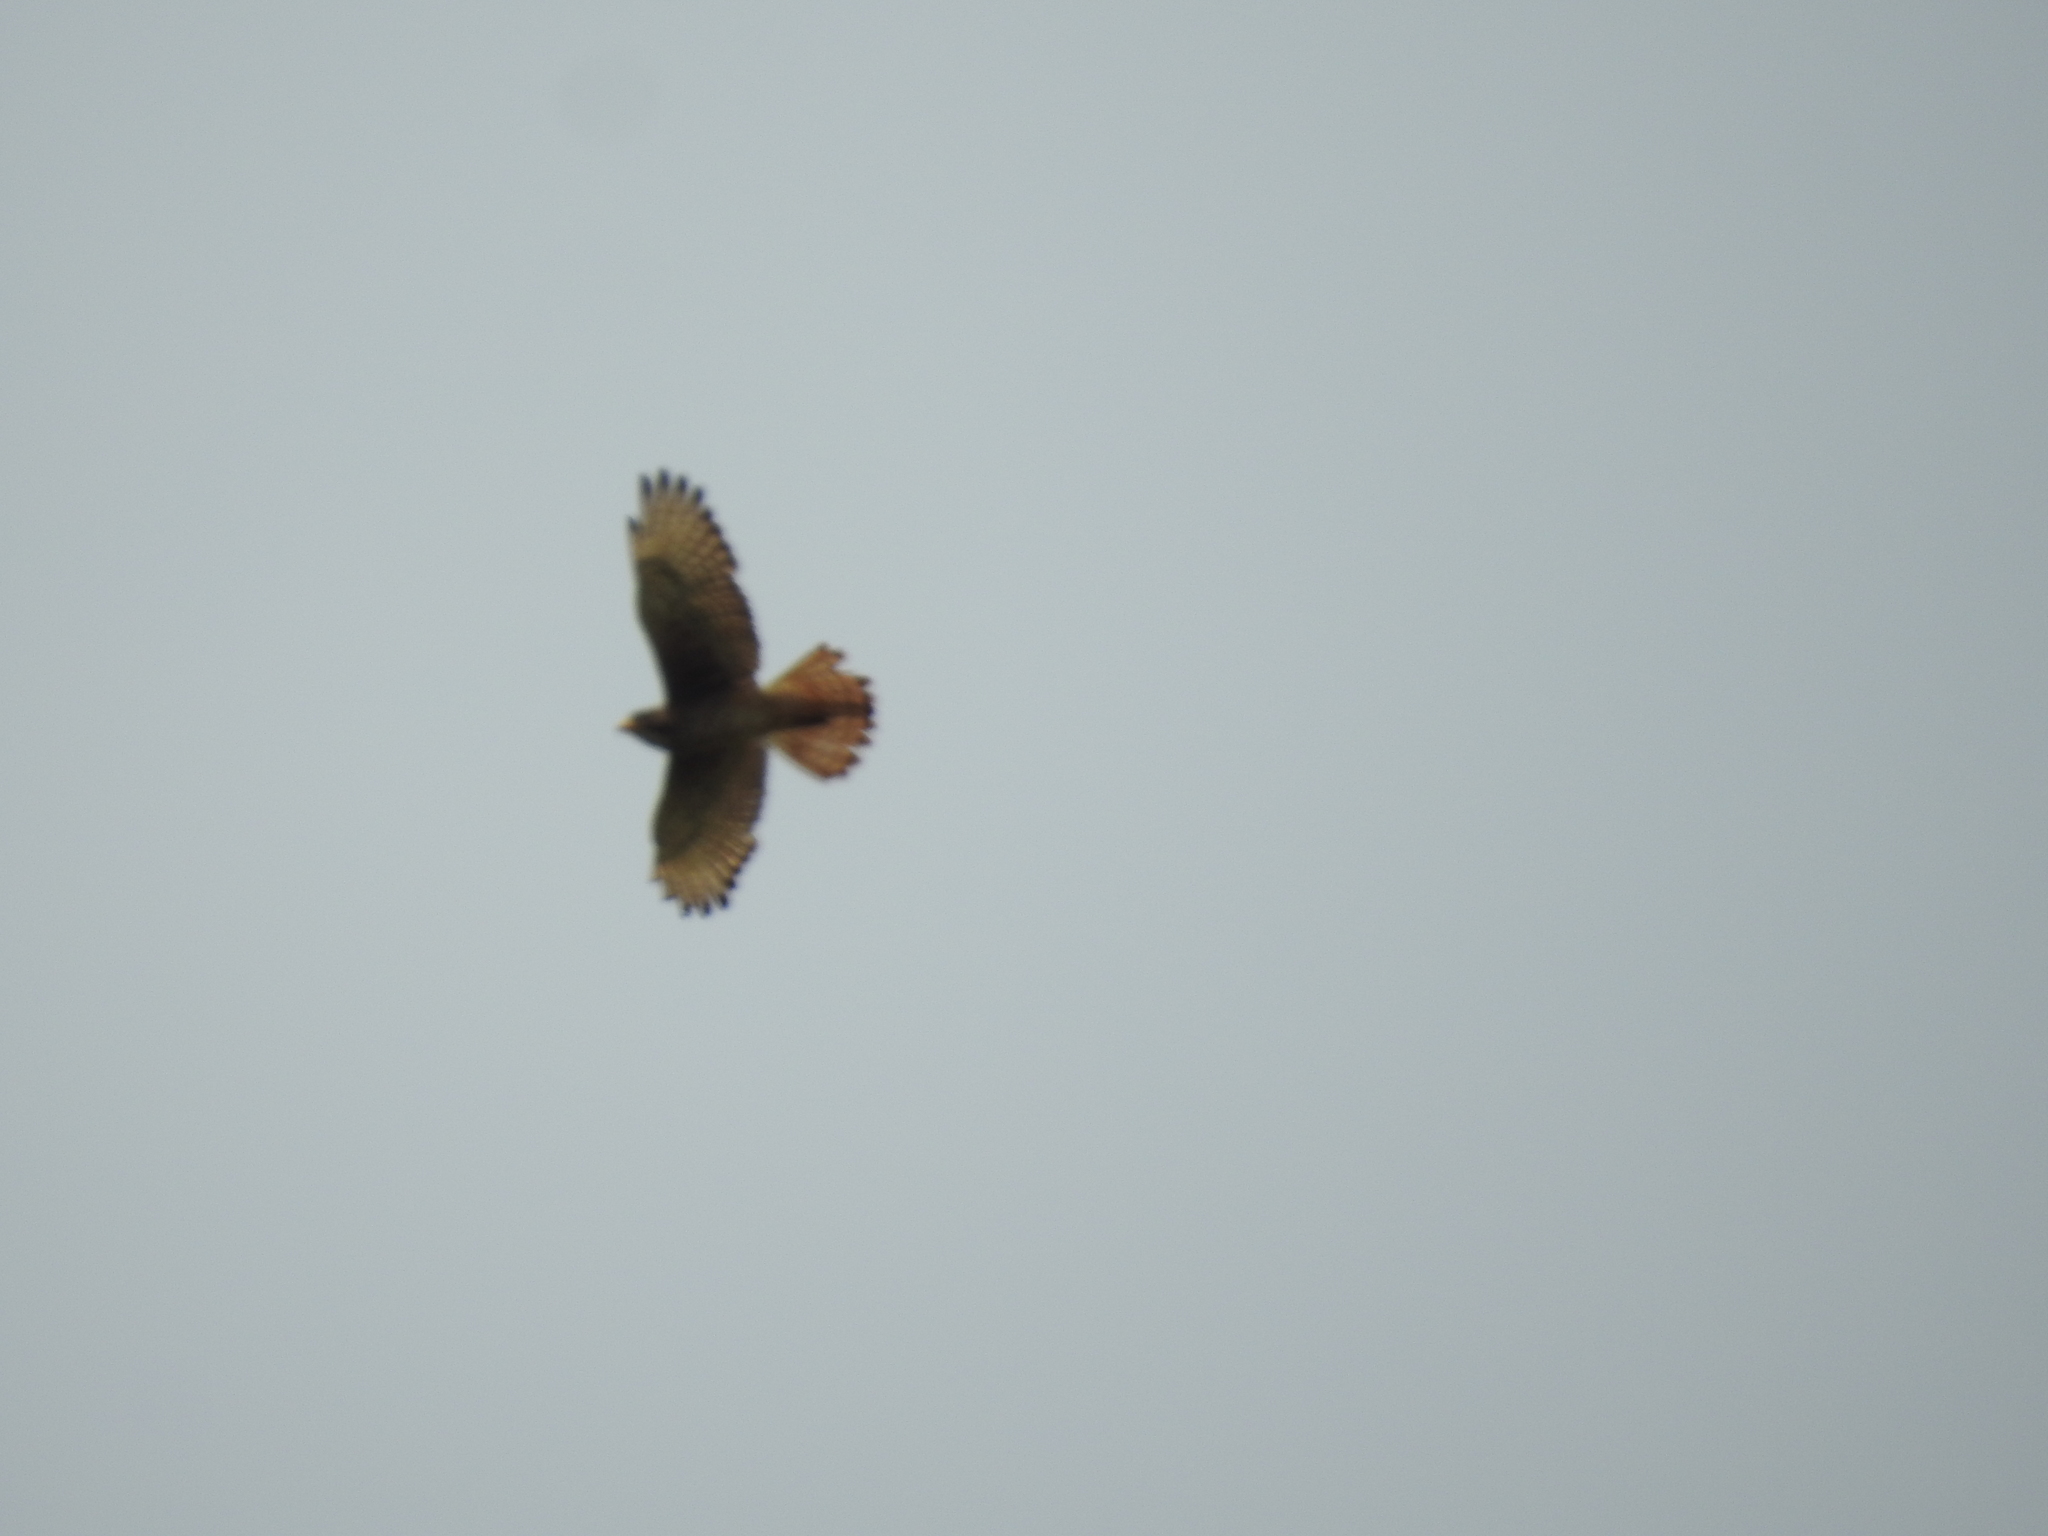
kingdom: Animalia
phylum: Chordata
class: Aves
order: Accipitriformes
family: Accipitridae
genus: Butastur
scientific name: Butastur teesa
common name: White-eyed buzzard
